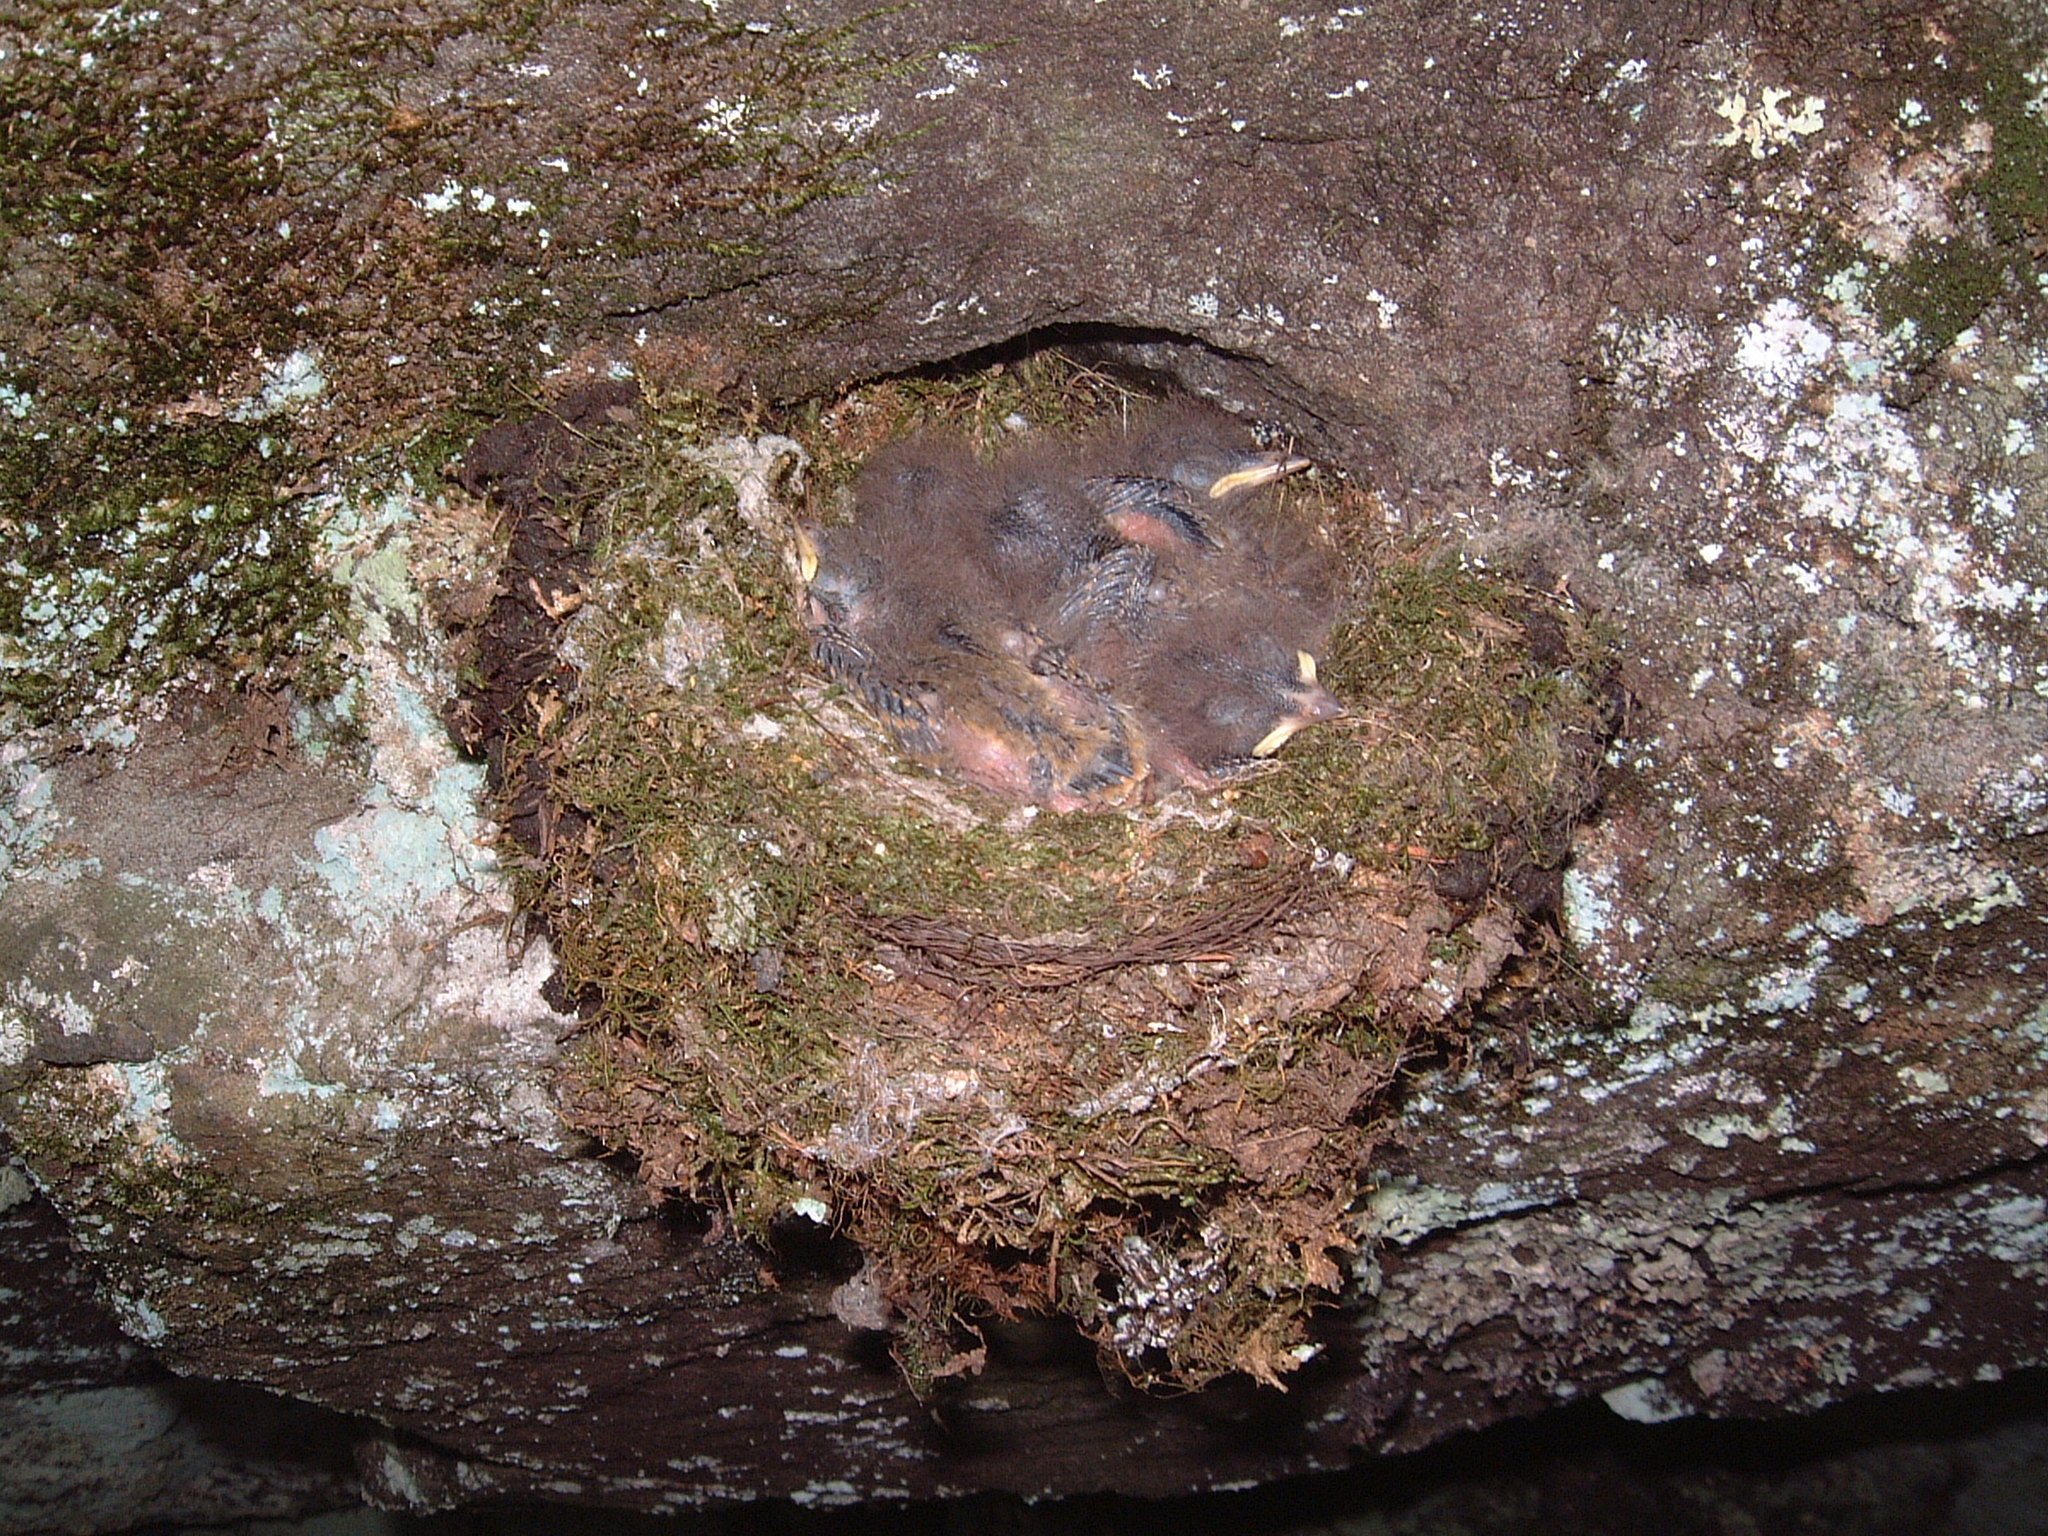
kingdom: Animalia
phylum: Chordata
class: Aves
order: Passeriformes
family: Tyrannidae
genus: Sayornis
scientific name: Sayornis phoebe
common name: Eastern phoebe
